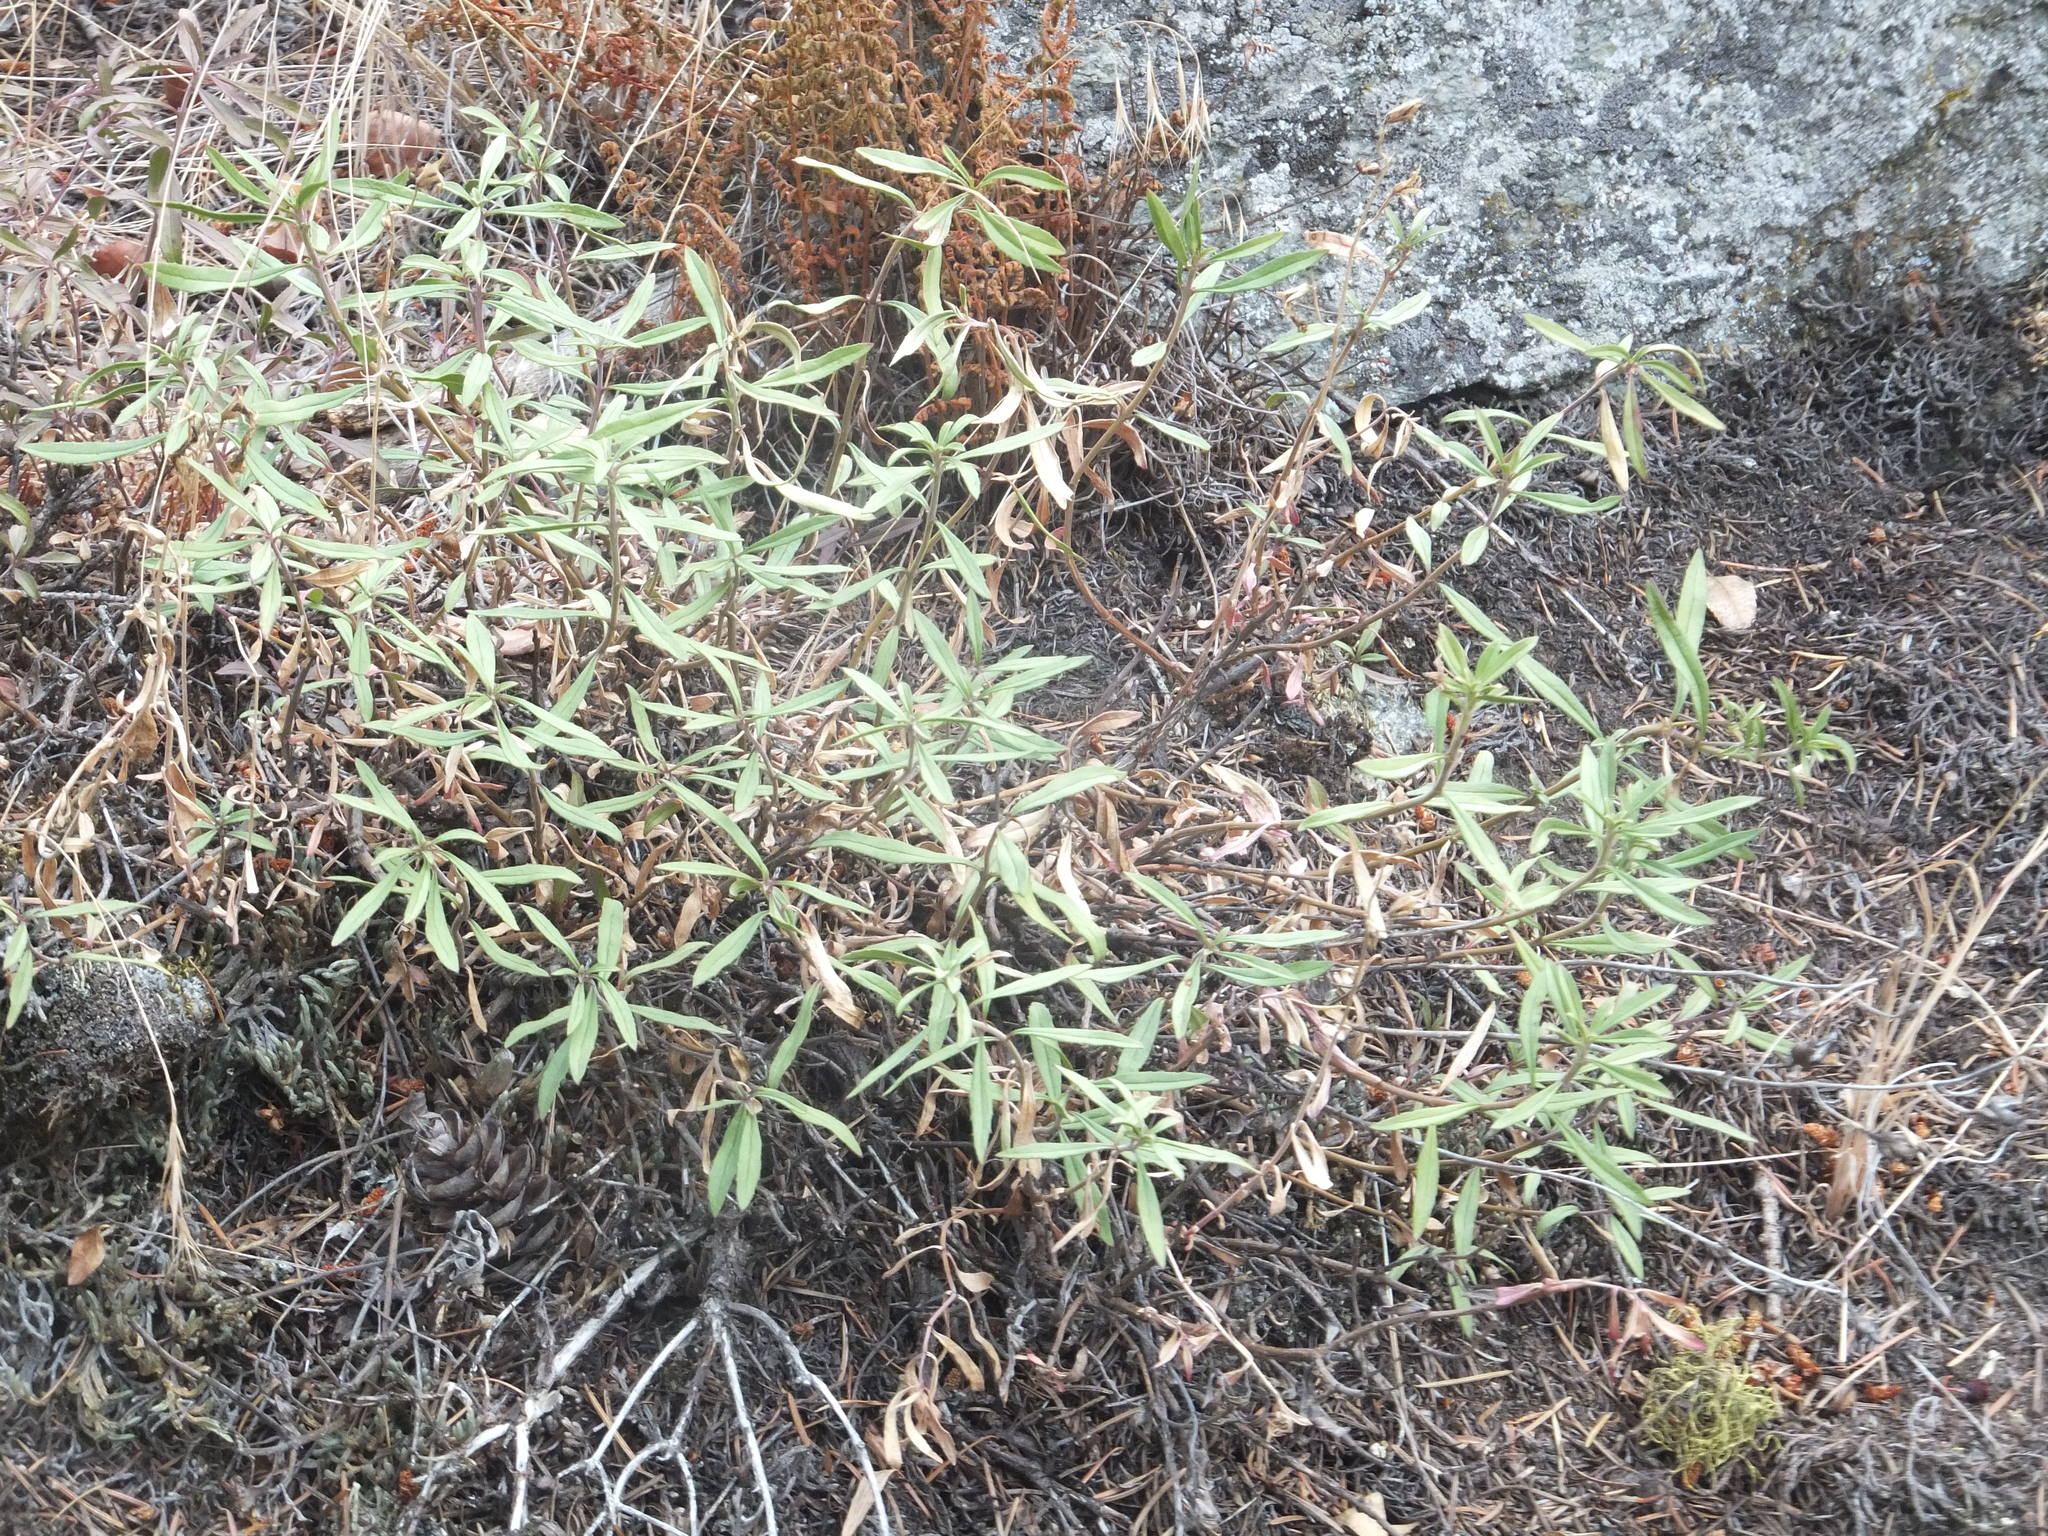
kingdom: Plantae
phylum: Tracheophyta
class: Magnoliopsida
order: Lamiales
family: Plantaginaceae
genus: Penstemon
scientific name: Penstemon fruticosus
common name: Bush penstemon
